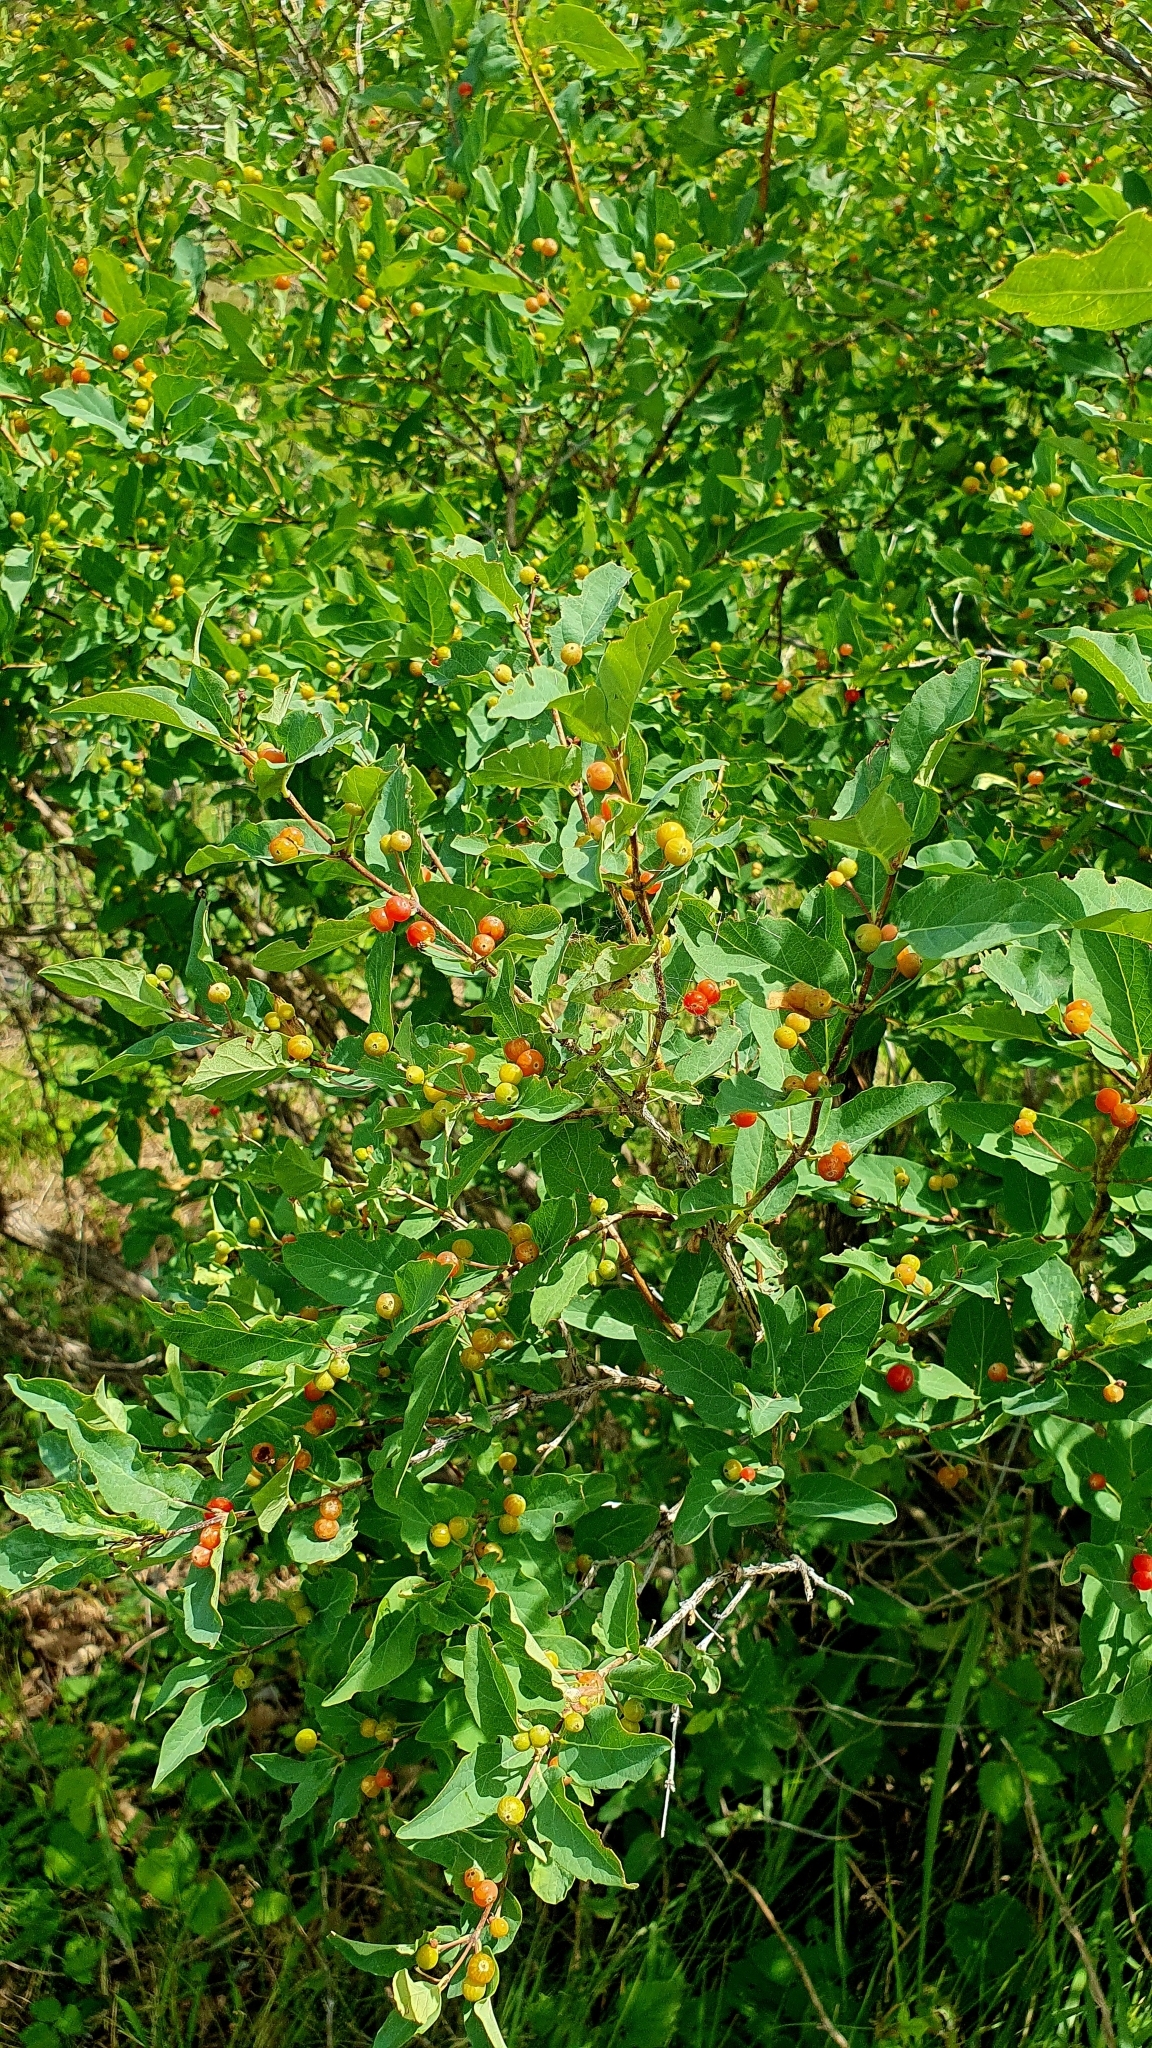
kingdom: Plantae
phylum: Tracheophyta
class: Magnoliopsida
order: Dipsacales
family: Caprifoliaceae
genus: Lonicera
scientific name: Lonicera tatarica
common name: Tatarian honeysuckle
